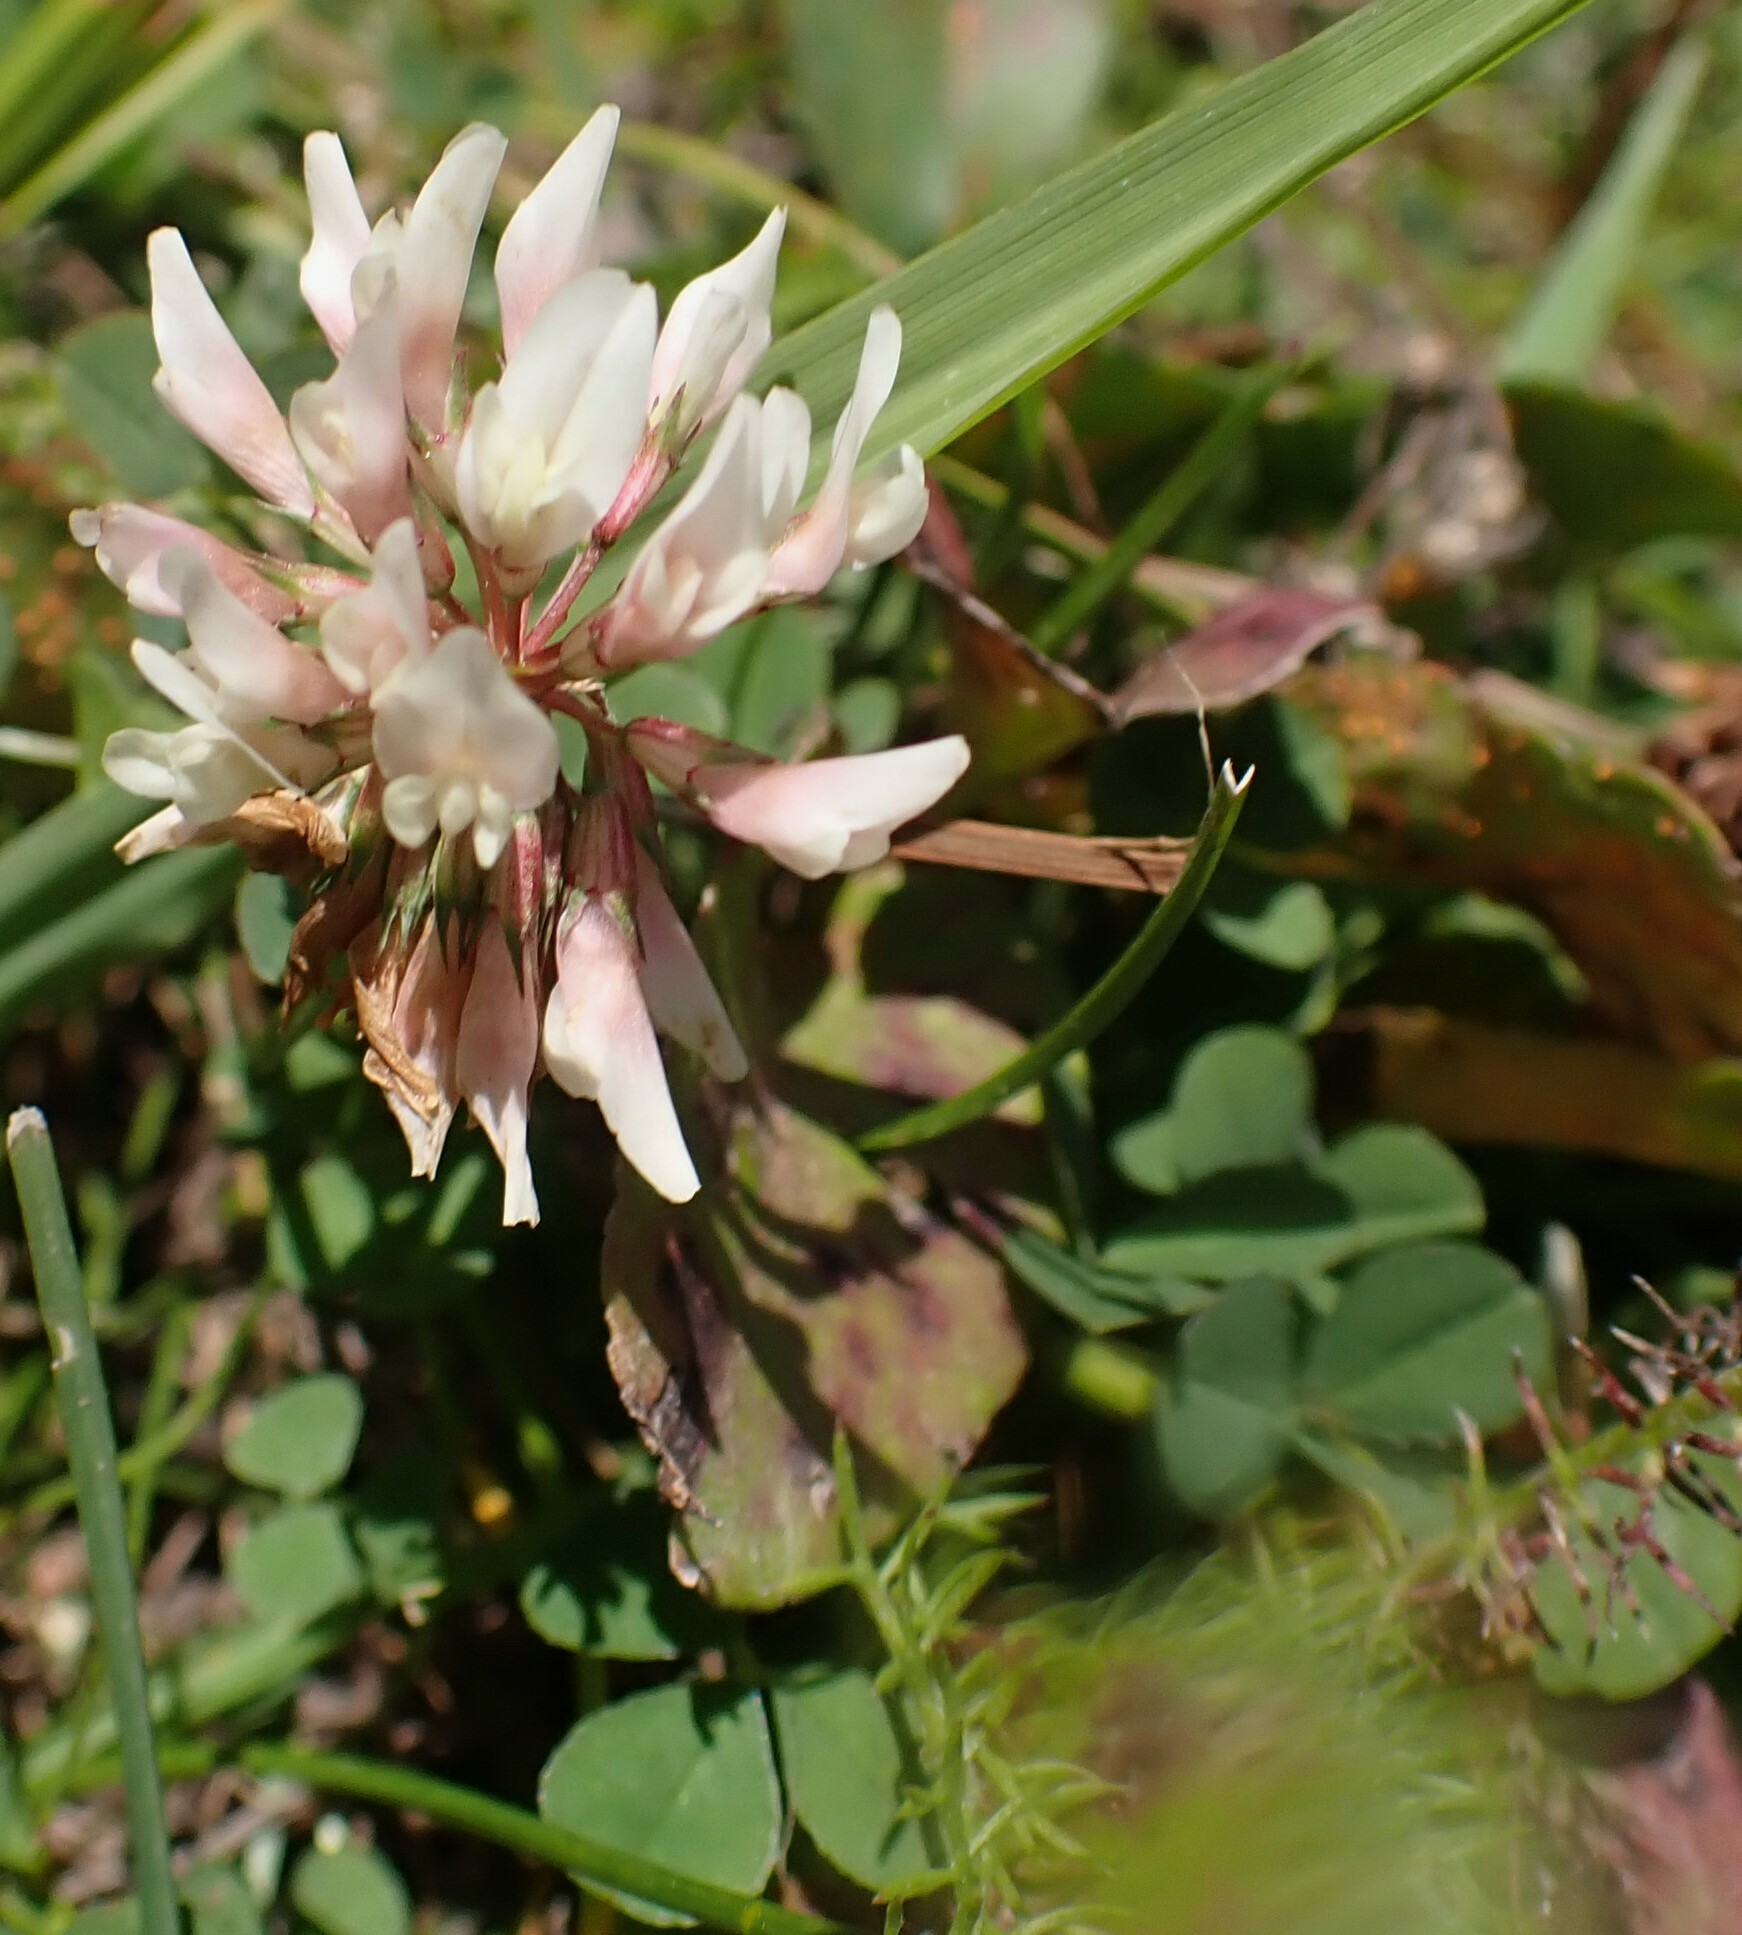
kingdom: Plantae
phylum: Tracheophyta
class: Magnoliopsida
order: Fabales
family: Fabaceae
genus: Trifolium
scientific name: Trifolium repens
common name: White clover
